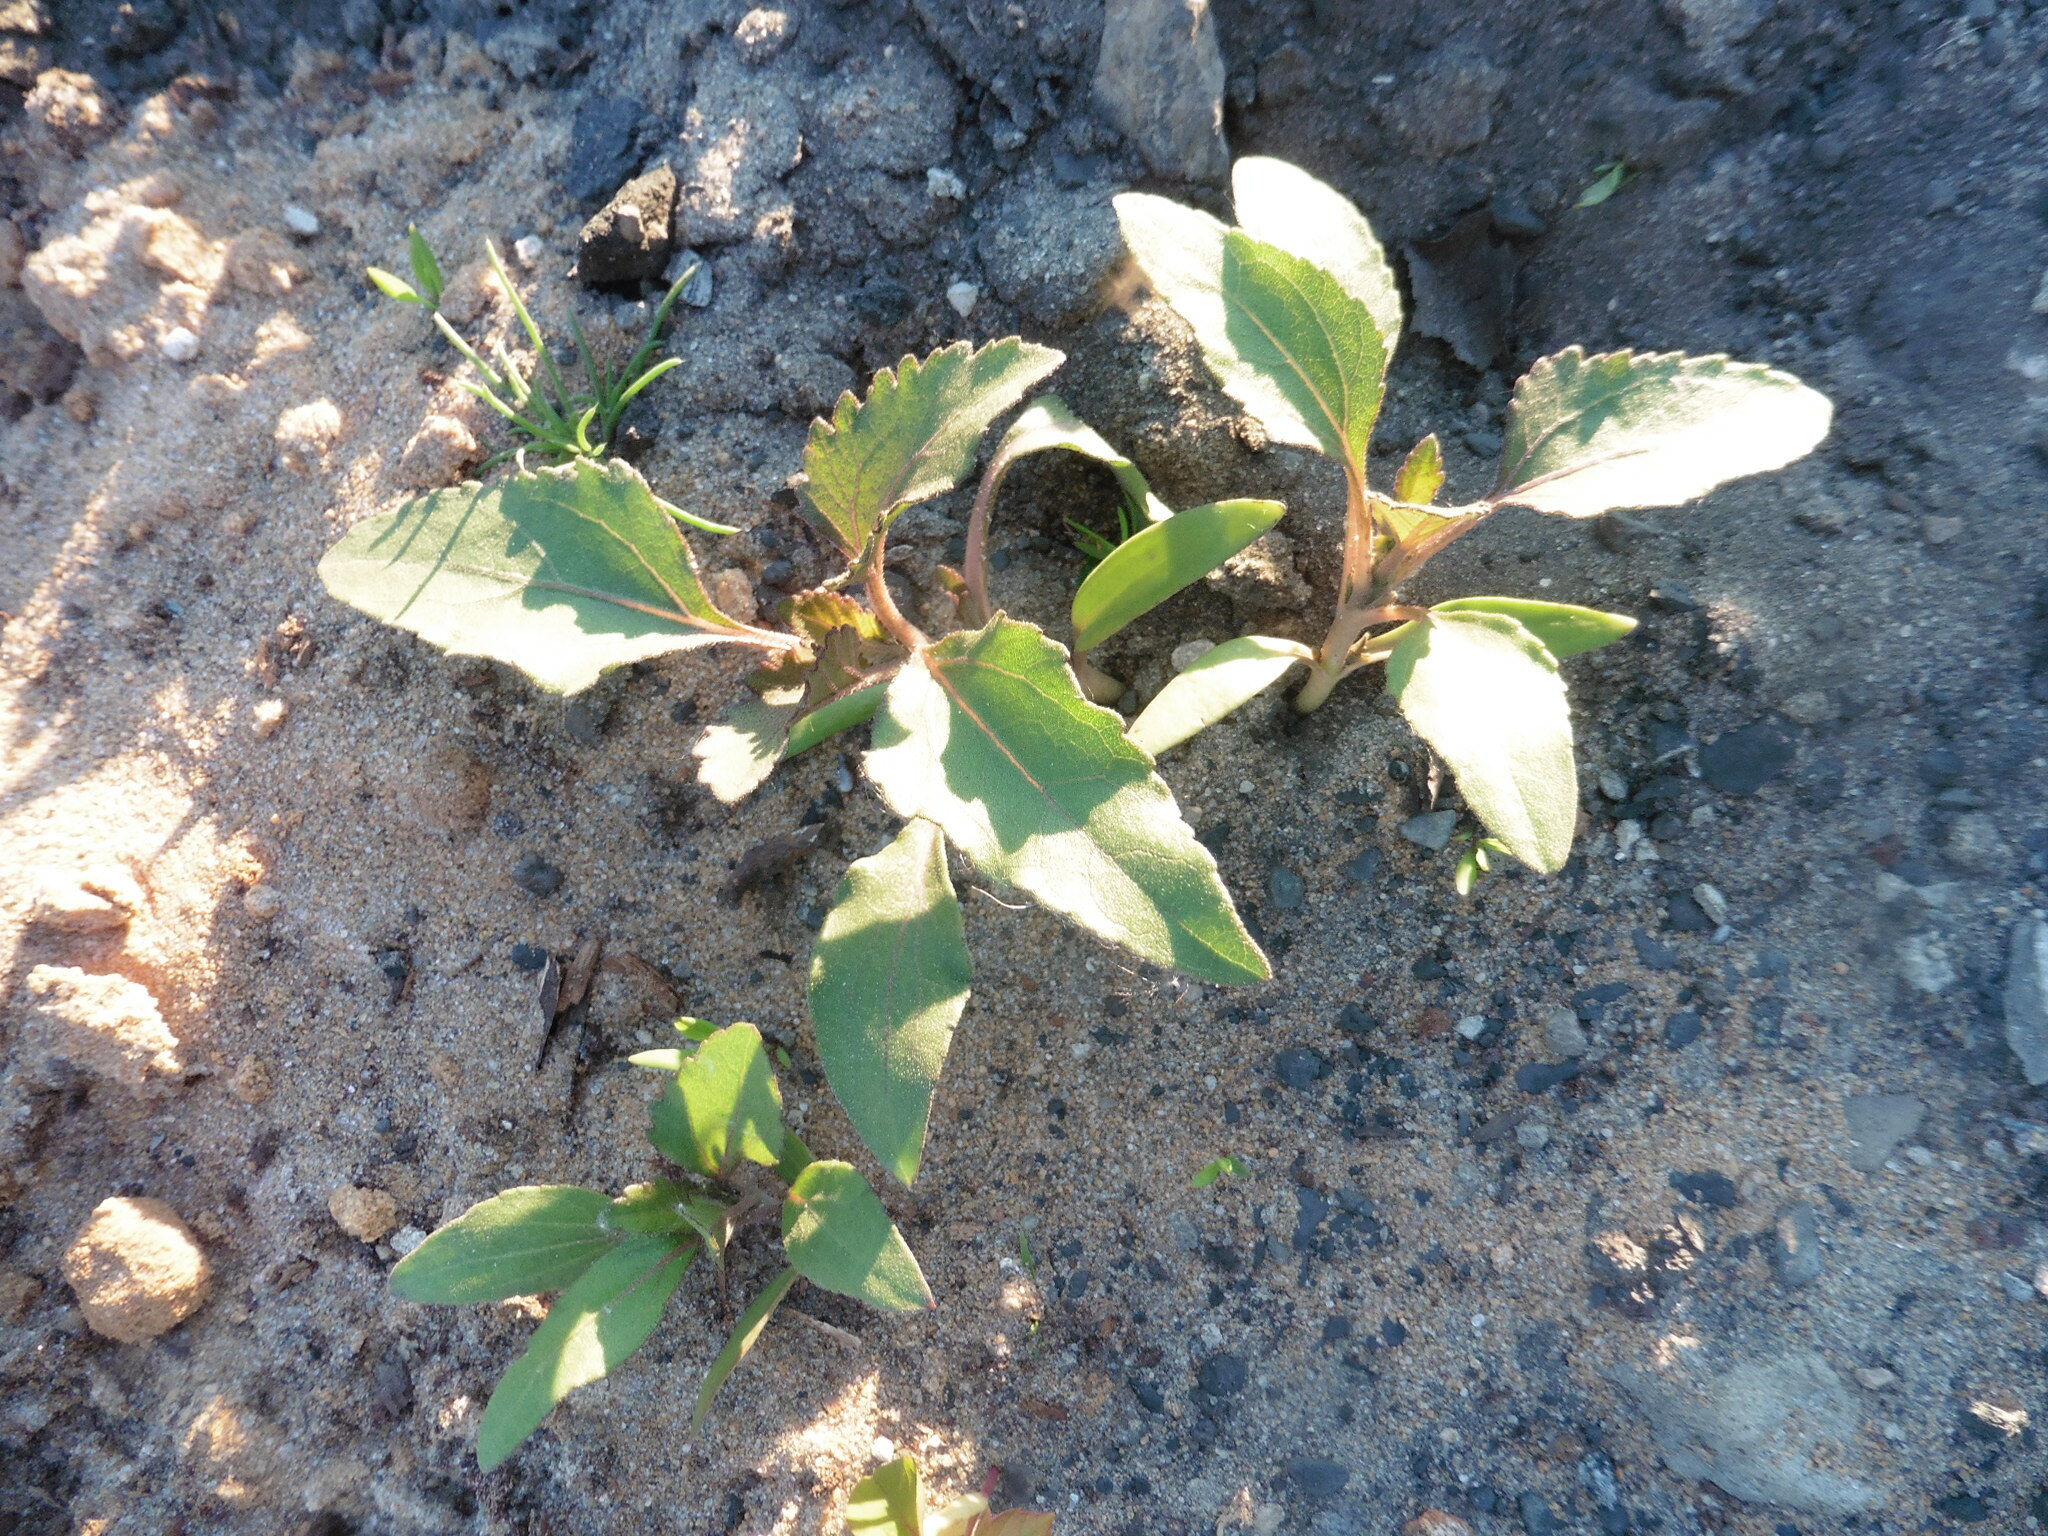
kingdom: Plantae
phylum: Tracheophyta
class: Magnoliopsida
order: Asterales
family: Asteraceae
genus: Xanthium
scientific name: Xanthium orientale
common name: Californian burr
